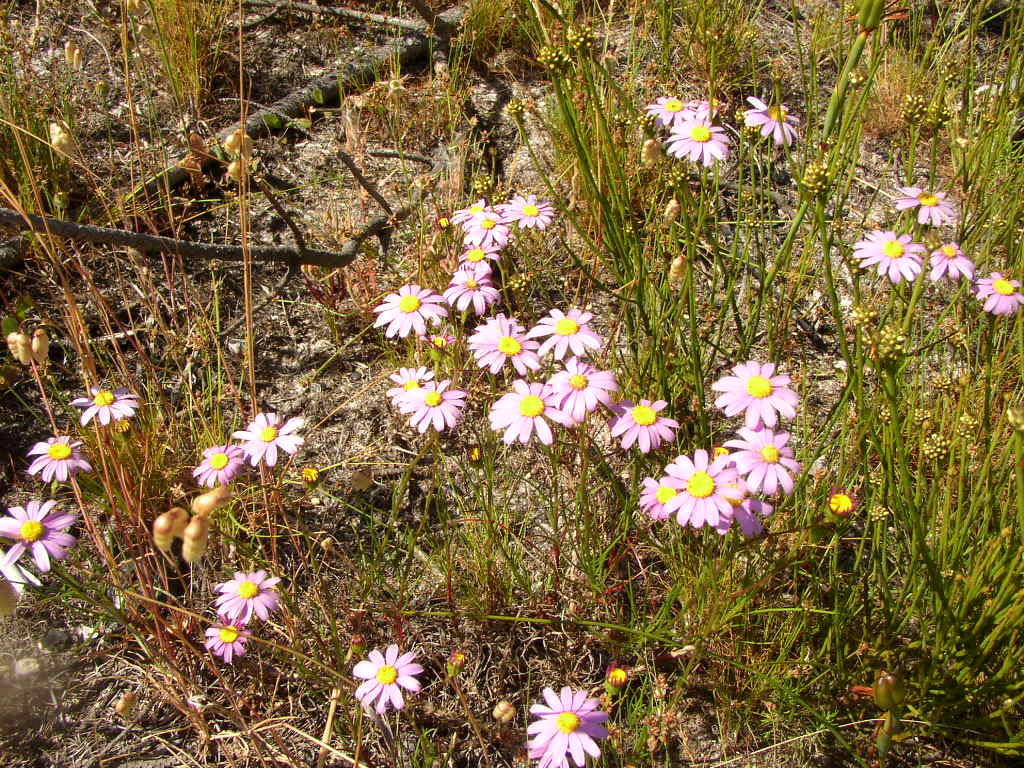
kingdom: Plantae
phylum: Tracheophyta
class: Magnoliopsida
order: Asterales
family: Asteraceae
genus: Senecio
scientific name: Senecio umbellatus
